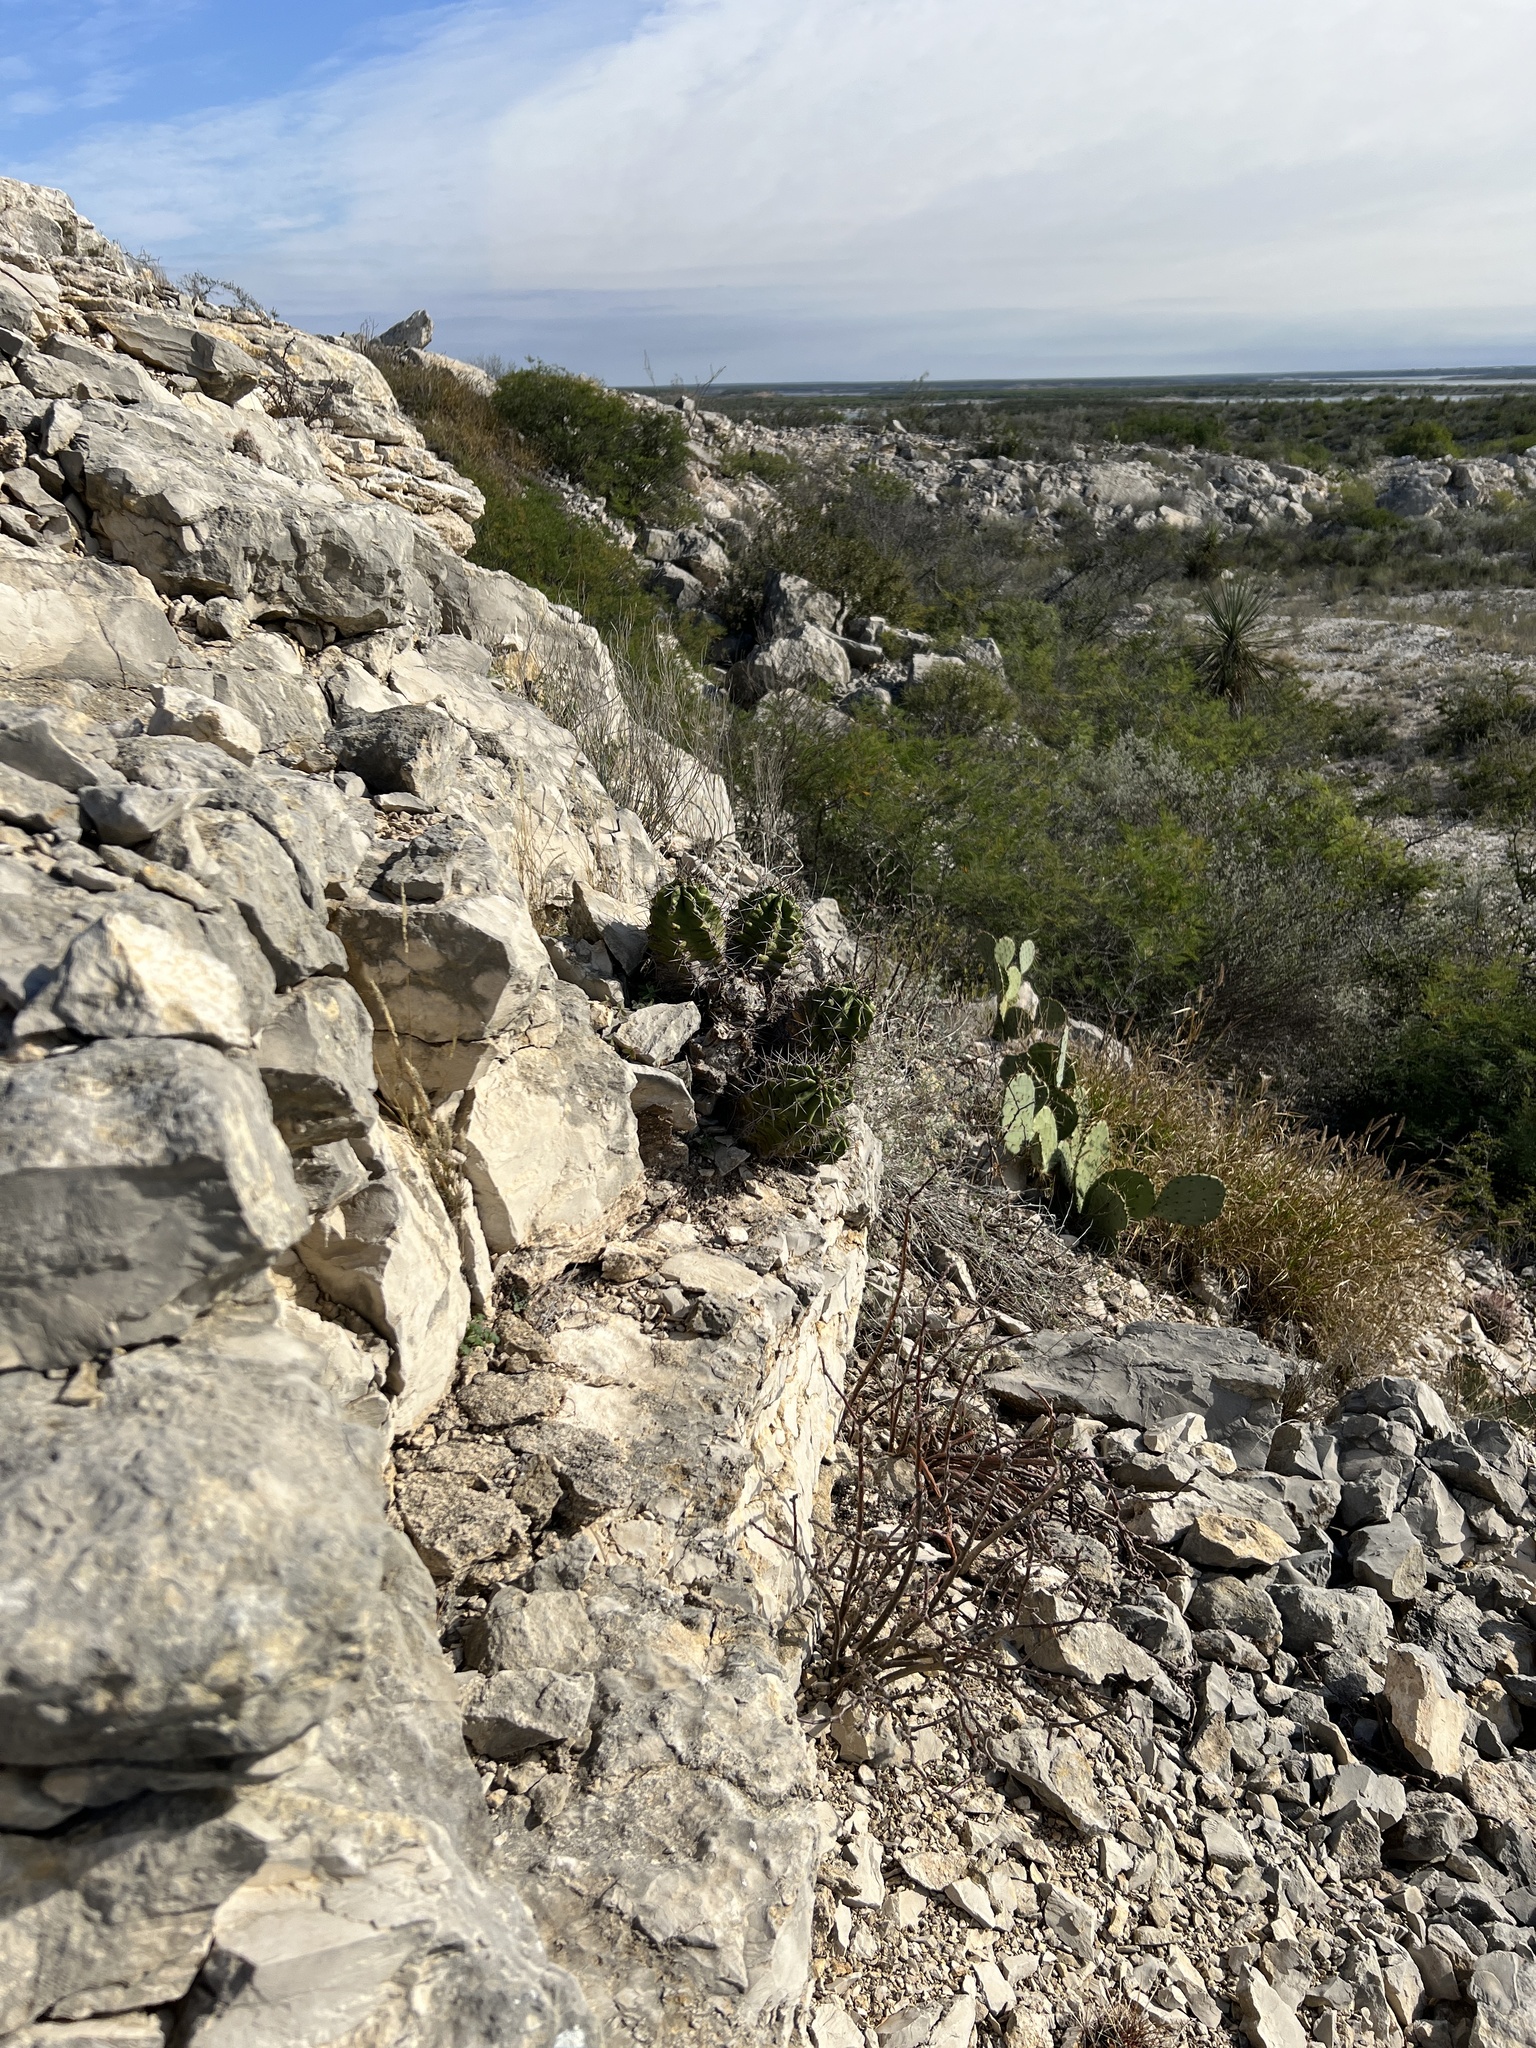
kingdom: Plantae
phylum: Tracheophyta
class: Magnoliopsida
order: Caryophyllales
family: Cactaceae
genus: Echinocereus
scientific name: Echinocereus coccineus
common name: Scarlet hedgehog cactus
